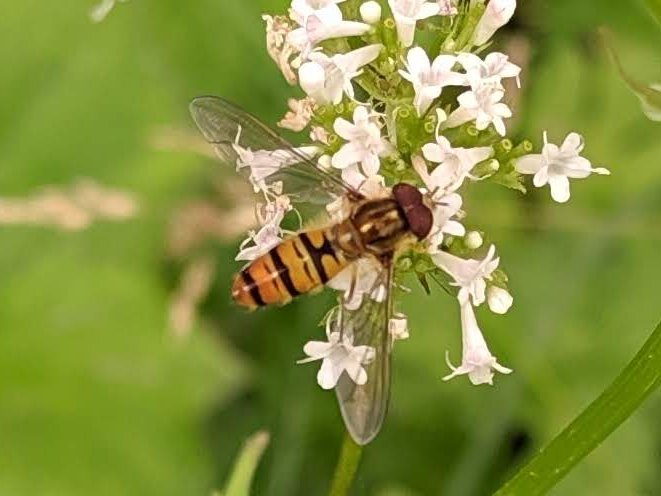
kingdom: Animalia
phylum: Arthropoda
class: Insecta
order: Diptera
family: Syrphidae
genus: Episyrphus
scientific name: Episyrphus balteatus
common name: Marmalade hoverfly
